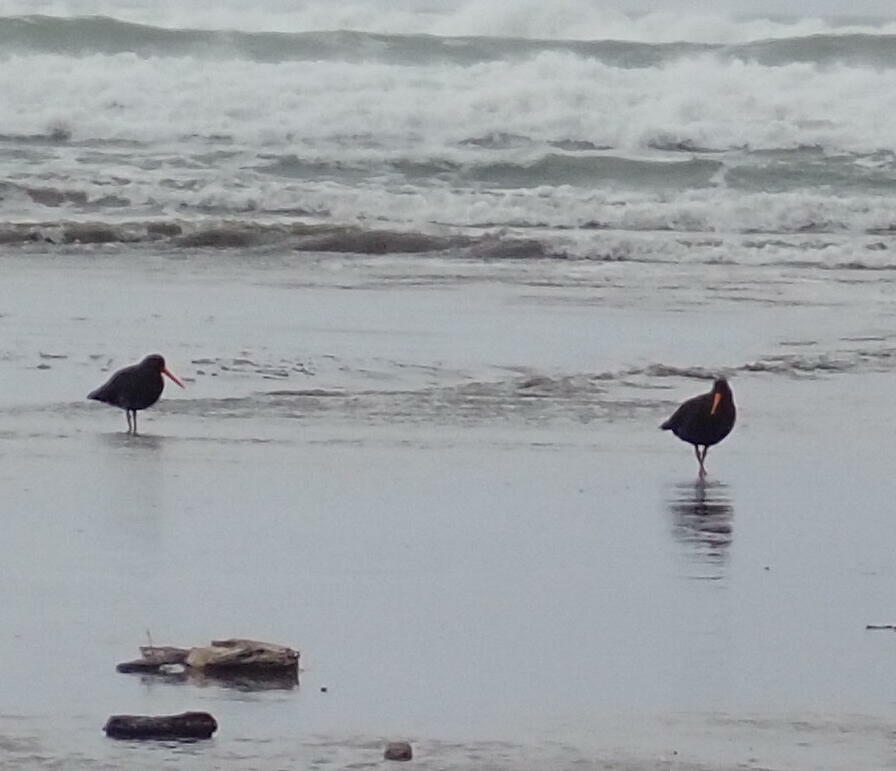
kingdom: Animalia
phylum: Chordata
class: Aves
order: Charadriiformes
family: Haematopodidae
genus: Haematopus
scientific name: Haematopus unicolor
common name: Variable oystercatcher
